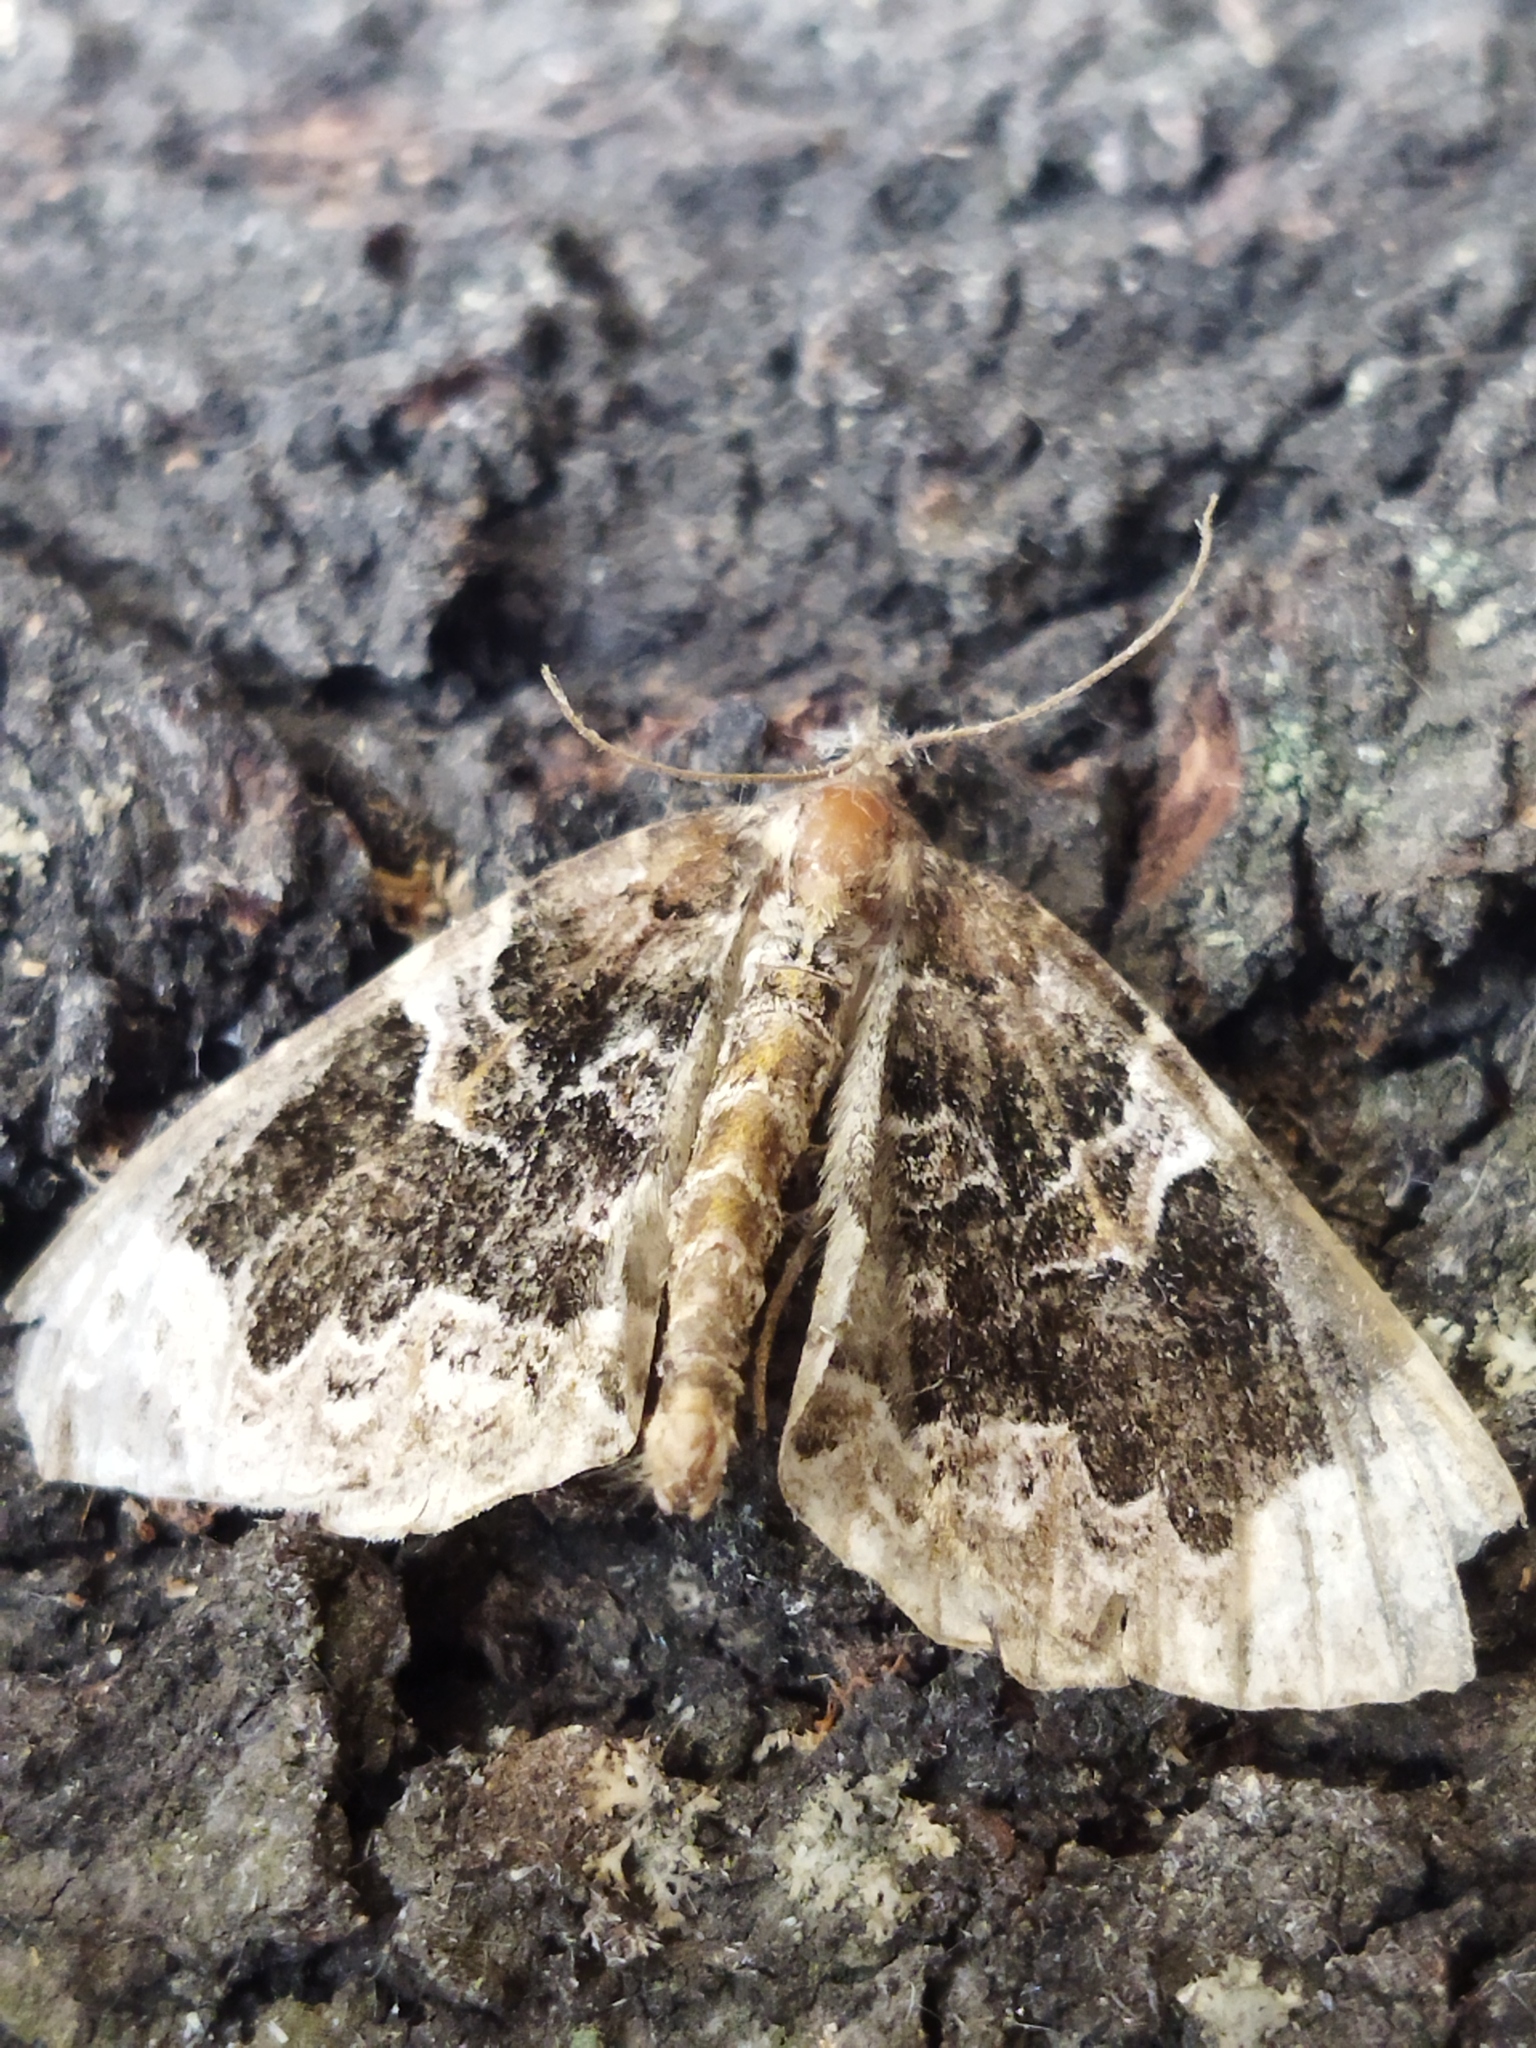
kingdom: Animalia
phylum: Arthropoda
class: Insecta
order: Lepidoptera
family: Geometridae
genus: Eulithis
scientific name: Eulithis prunata
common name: Phoenix
